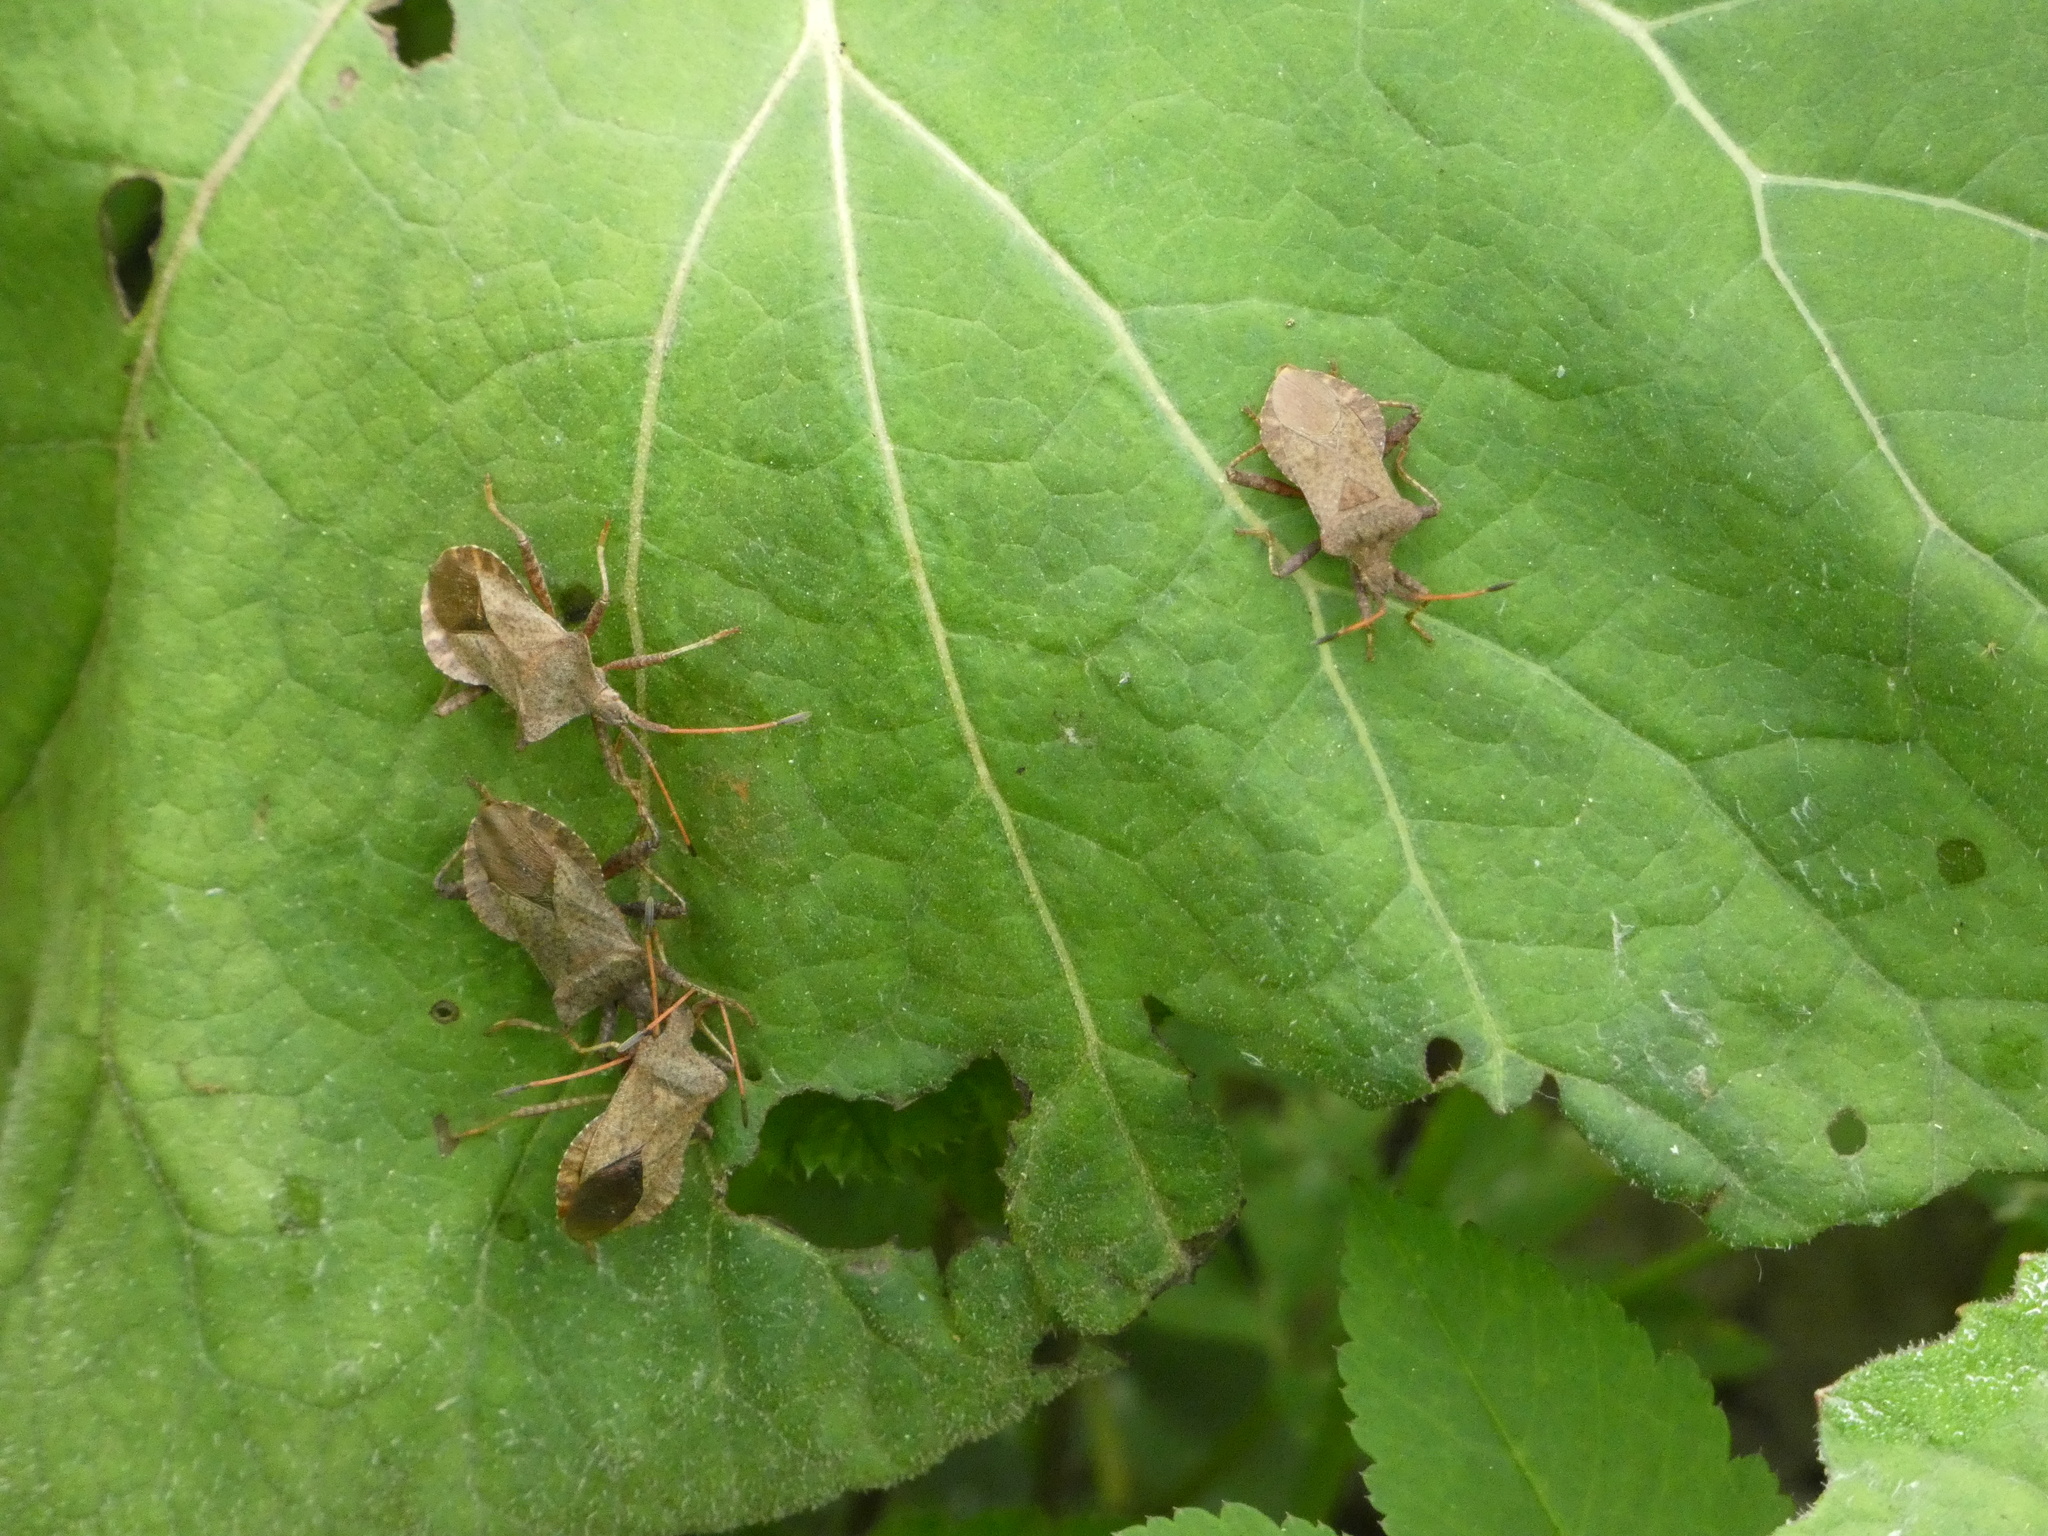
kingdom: Animalia
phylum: Arthropoda
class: Insecta
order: Hemiptera
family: Coreidae
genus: Coreus
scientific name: Coreus marginatus
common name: Dock bug
